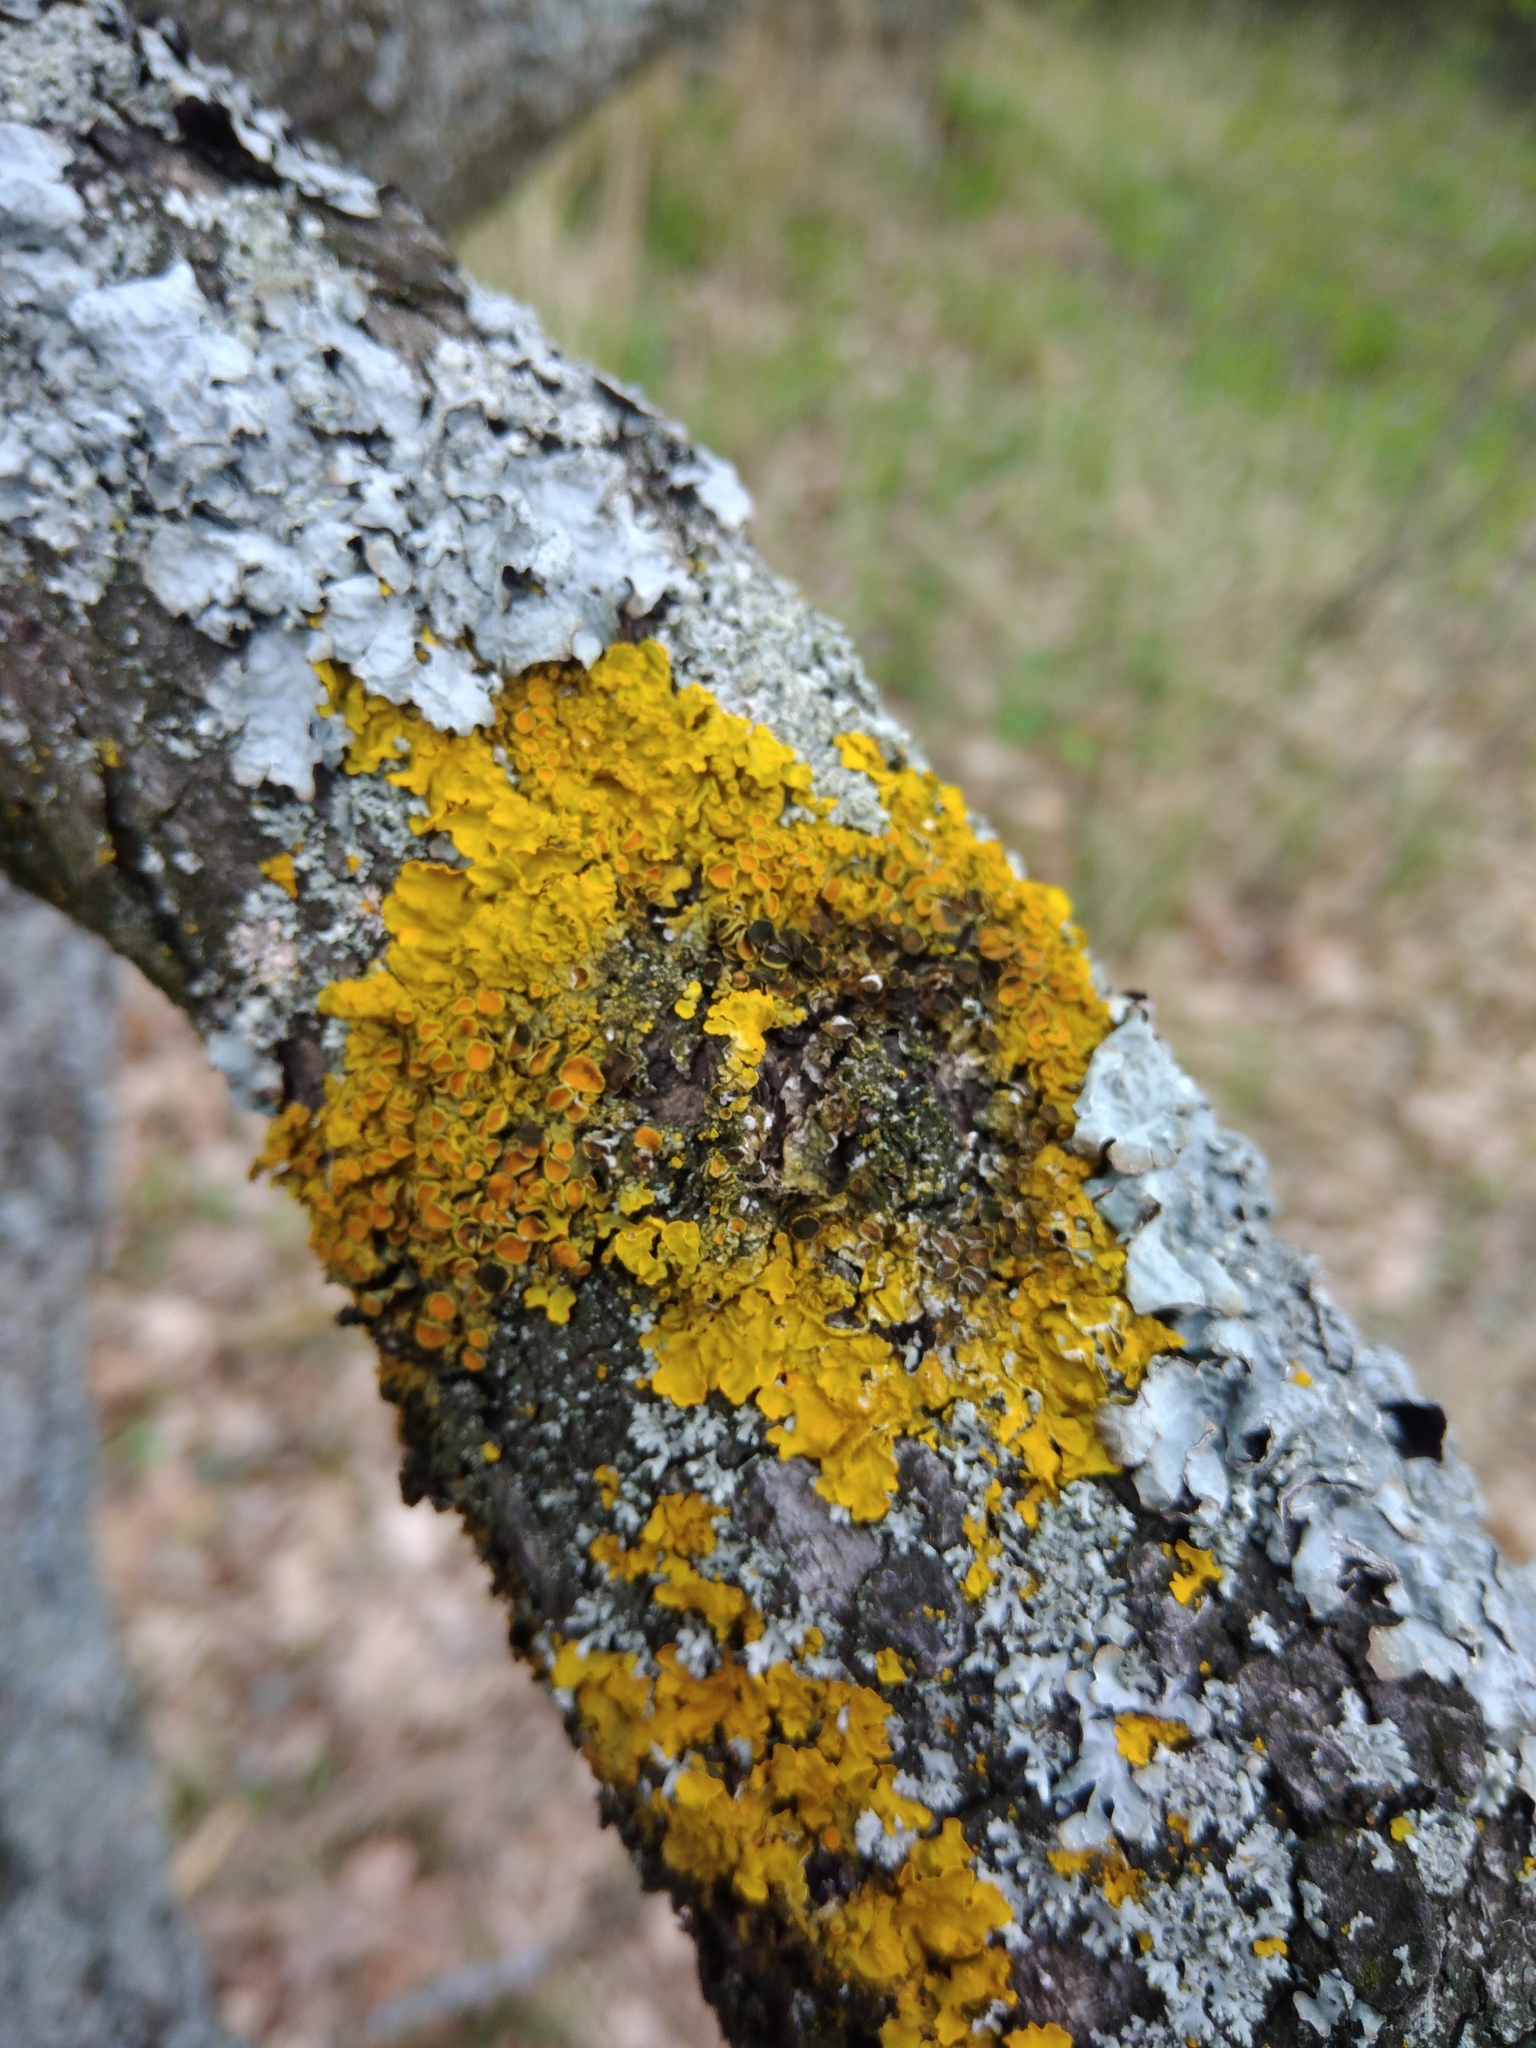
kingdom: Fungi
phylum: Ascomycota
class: Dothideomycetes
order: Mycosphaerellales
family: Teratosphaeriaceae
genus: Xanthoriicola
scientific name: Xanthoriicola physciae
